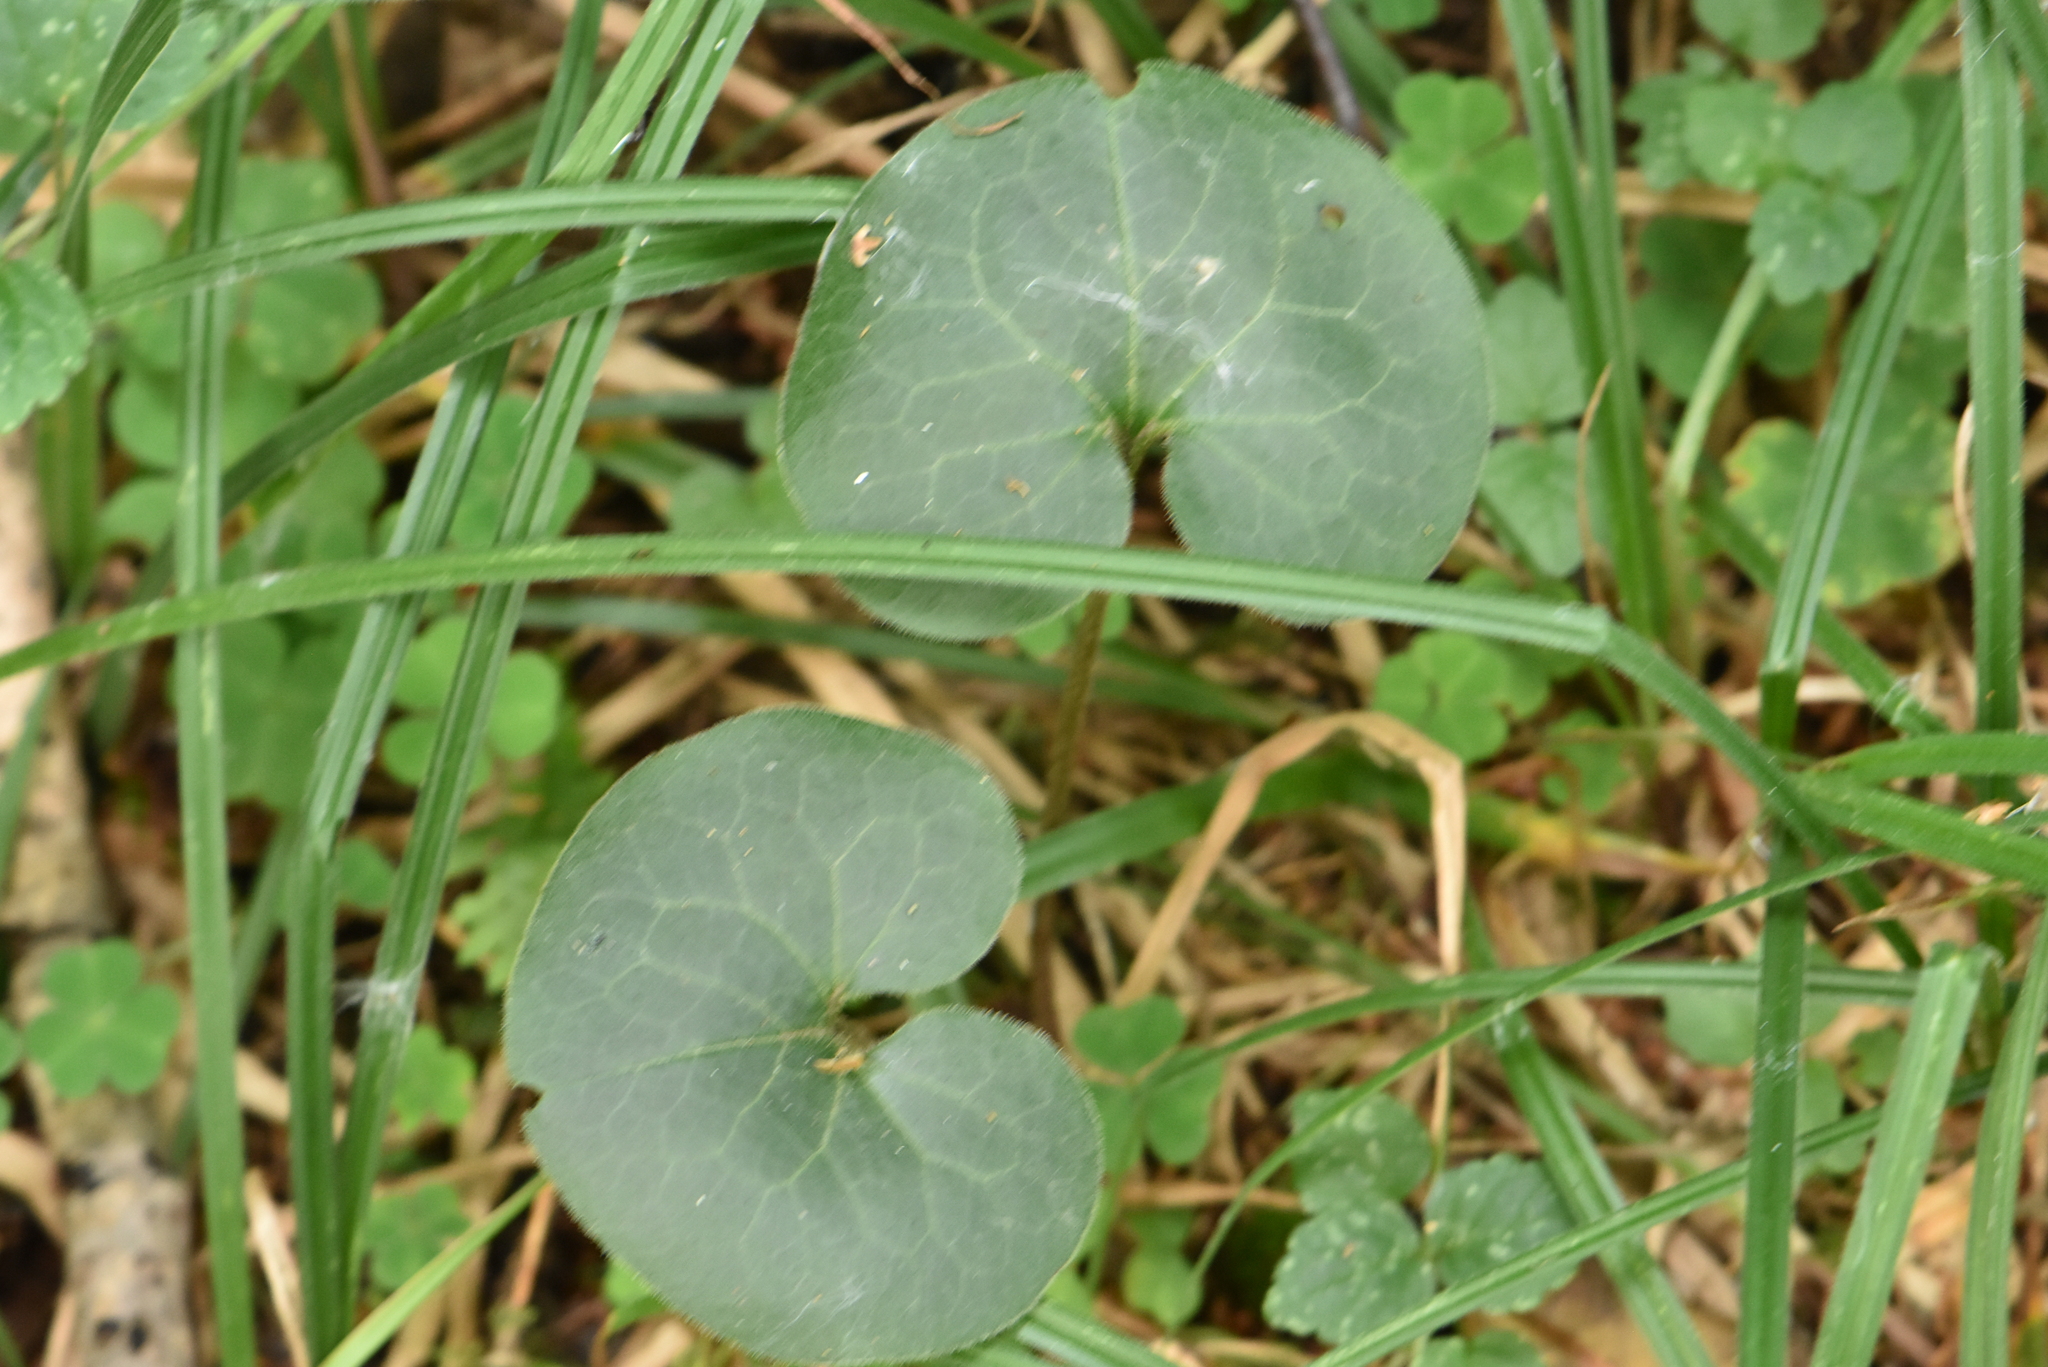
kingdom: Plantae
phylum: Tracheophyta
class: Magnoliopsida
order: Piperales
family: Aristolochiaceae
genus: Asarum
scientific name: Asarum europaeum
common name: Asarabacca
